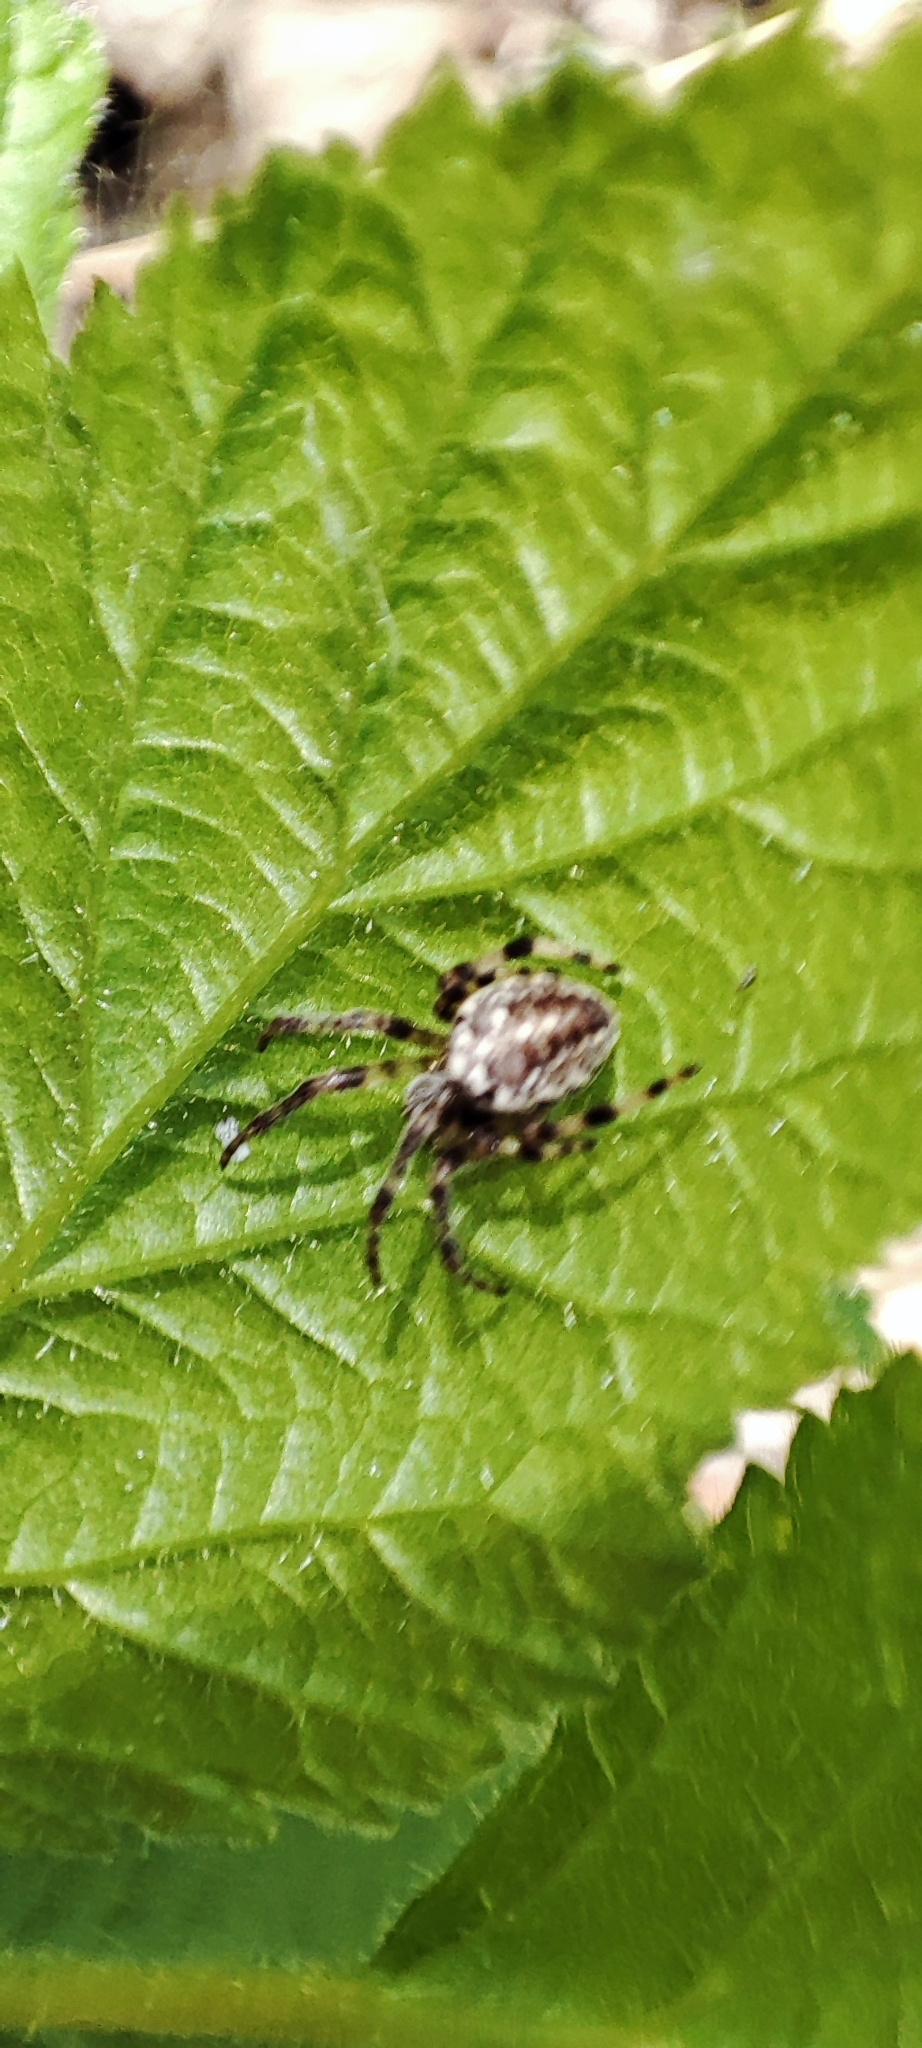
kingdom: Animalia
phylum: Arthropoda
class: Arachnida
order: Araneae
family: Araneidae
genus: Araneus
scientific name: Araneus marmoreus
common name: Marbled orbweaver
